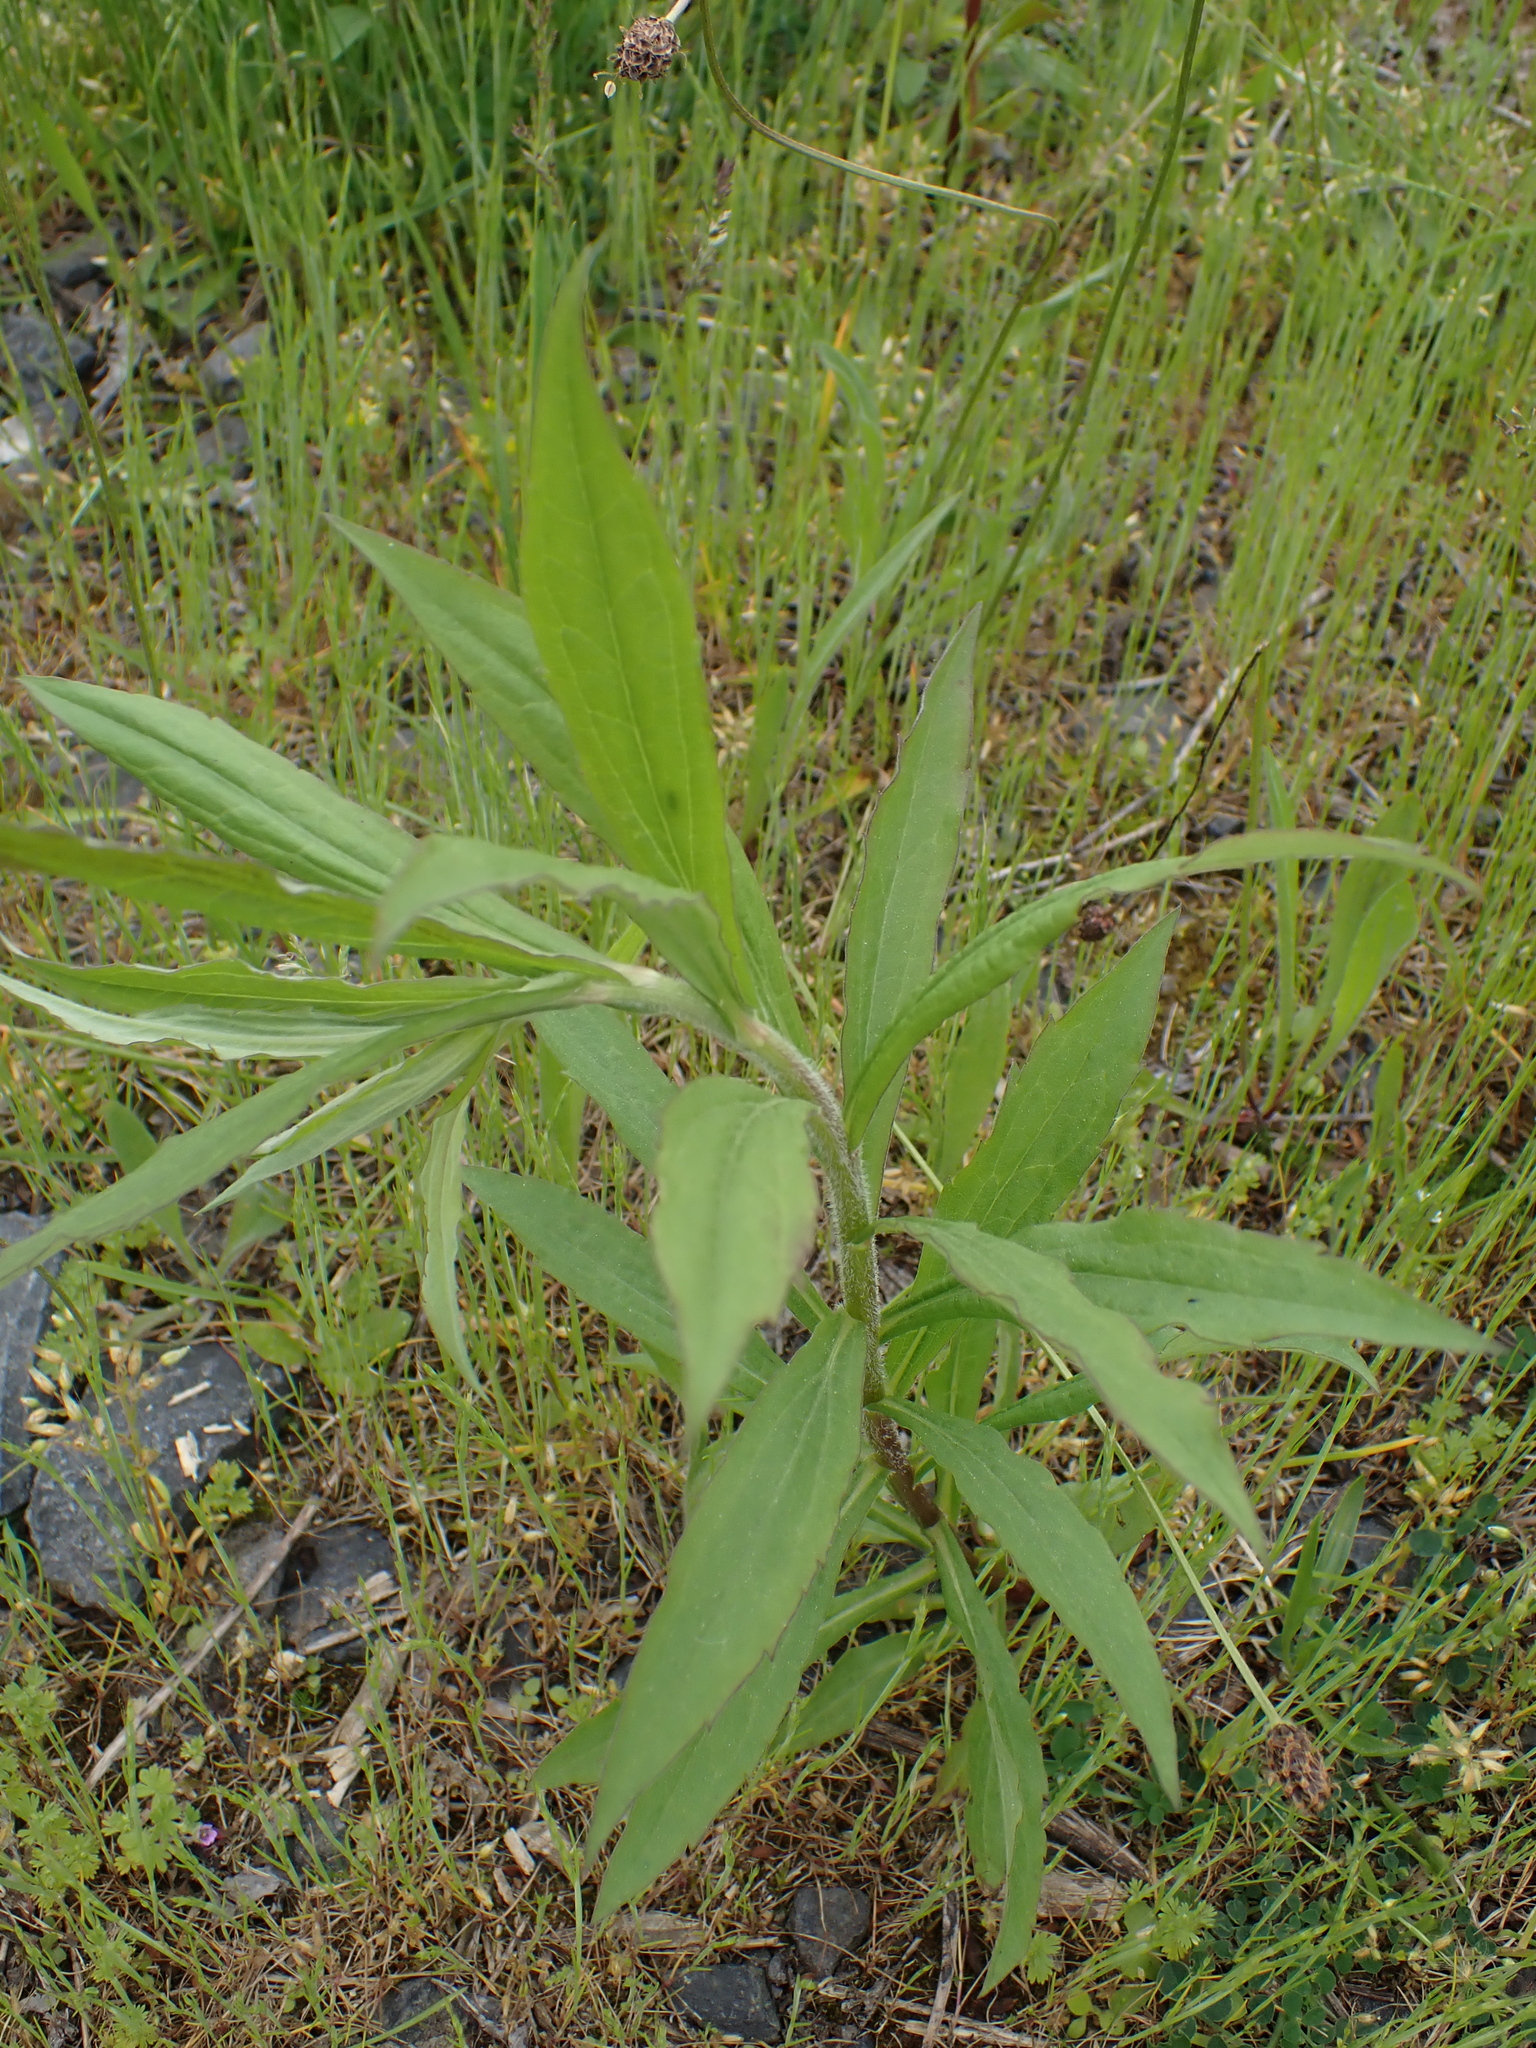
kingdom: Plantae
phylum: Tracheophyta
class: Magnoliopsida
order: Asterales
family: Asteraceae
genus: Solidago
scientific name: Solidago canadensis
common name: Canada goldenrod
